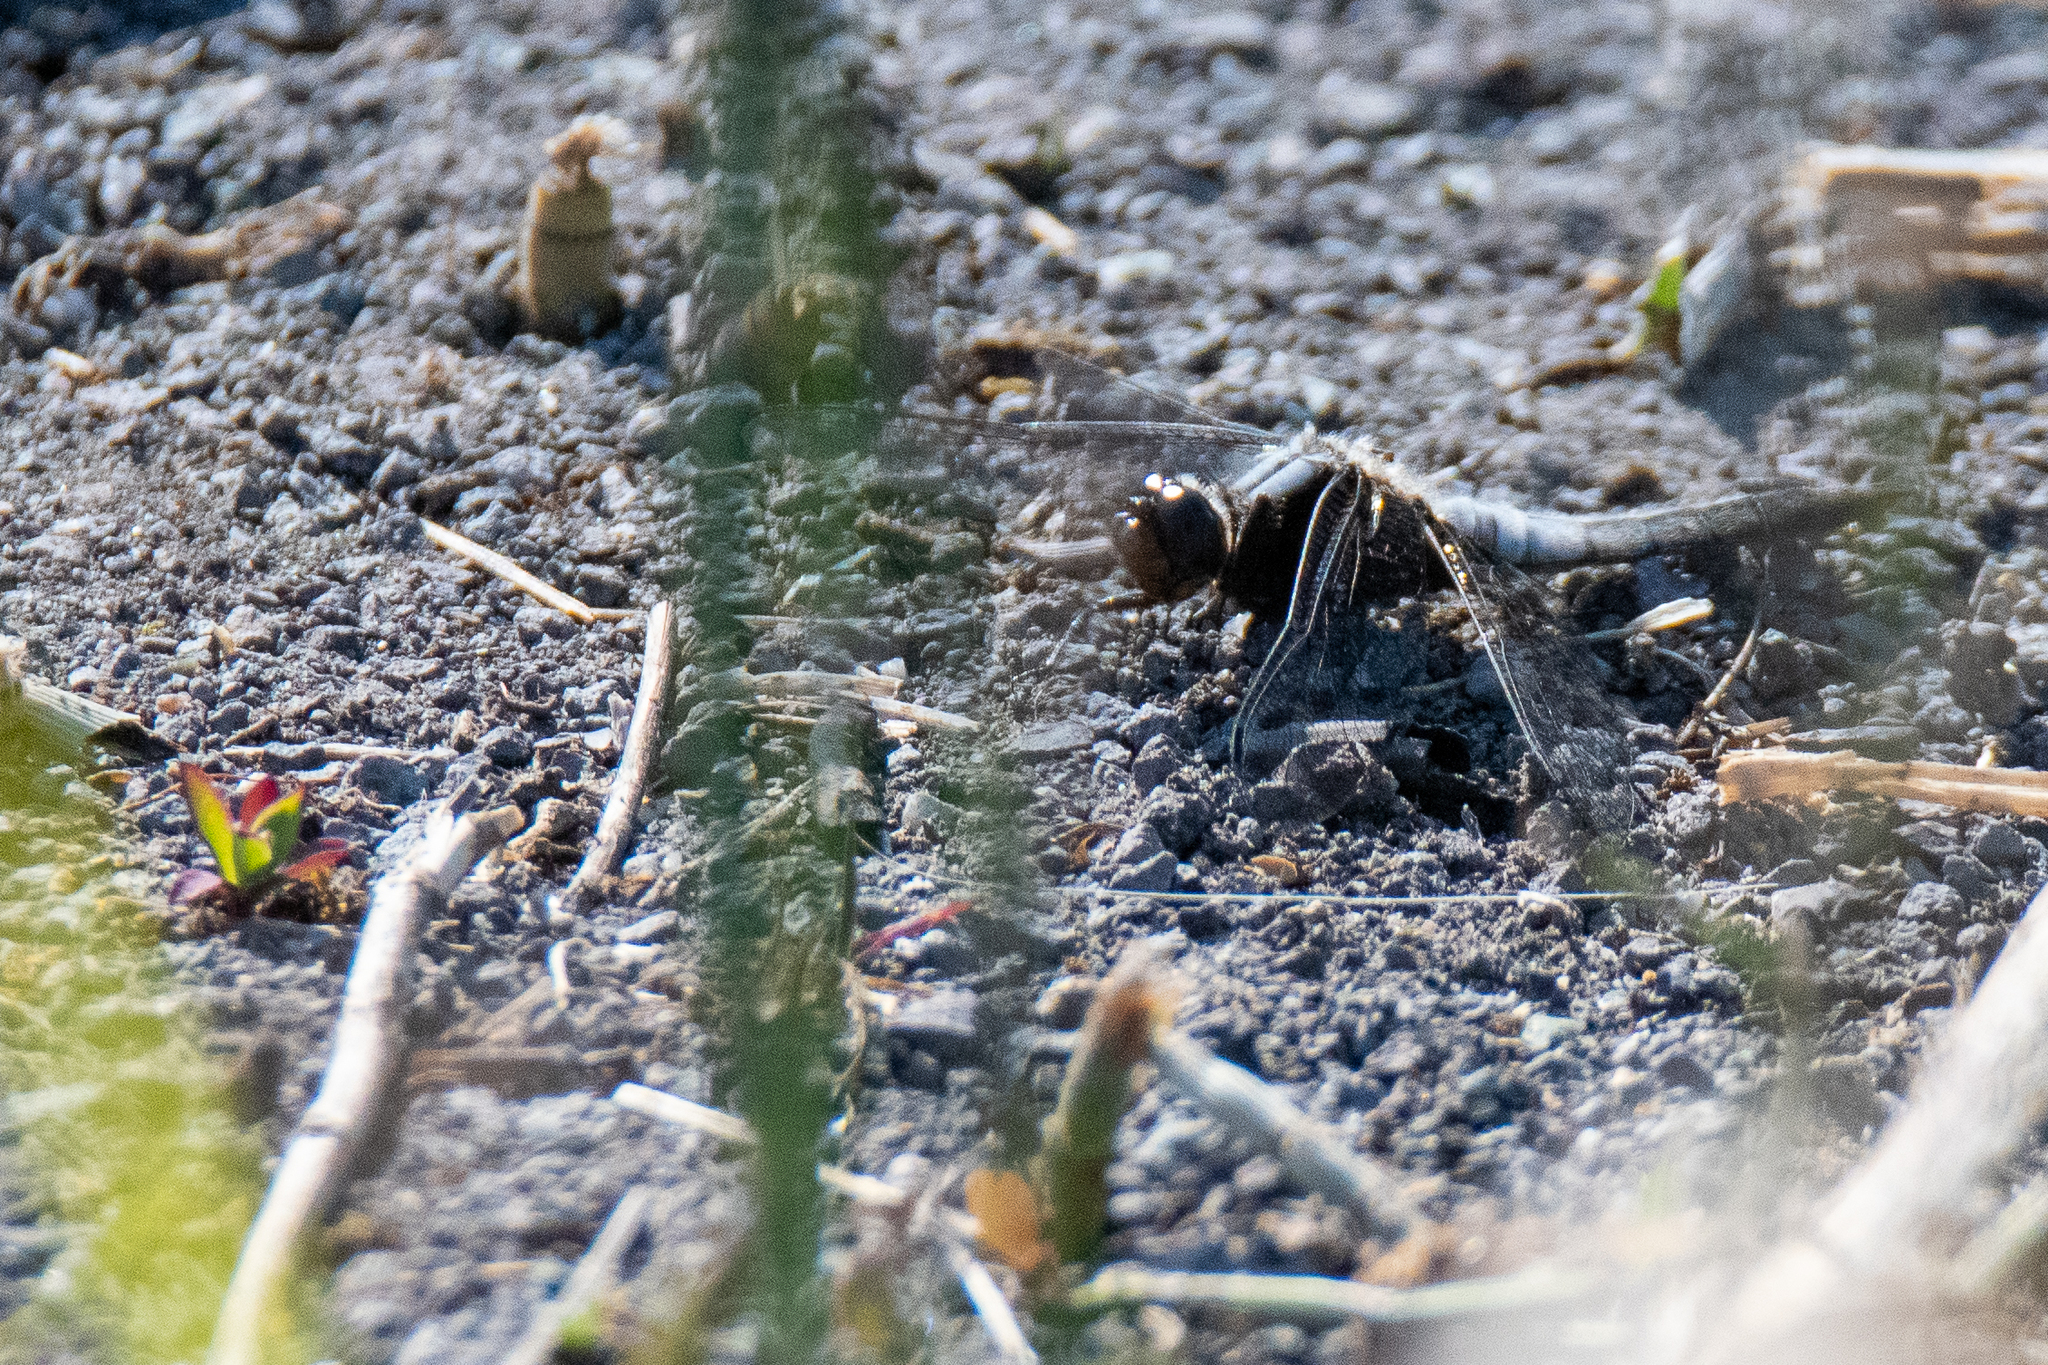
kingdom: Animalia
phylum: Arthropoda
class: Insecta
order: Odonata
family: Libellulidae
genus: Ladona
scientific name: Ladona julia
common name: Chalk-fronted corporal
